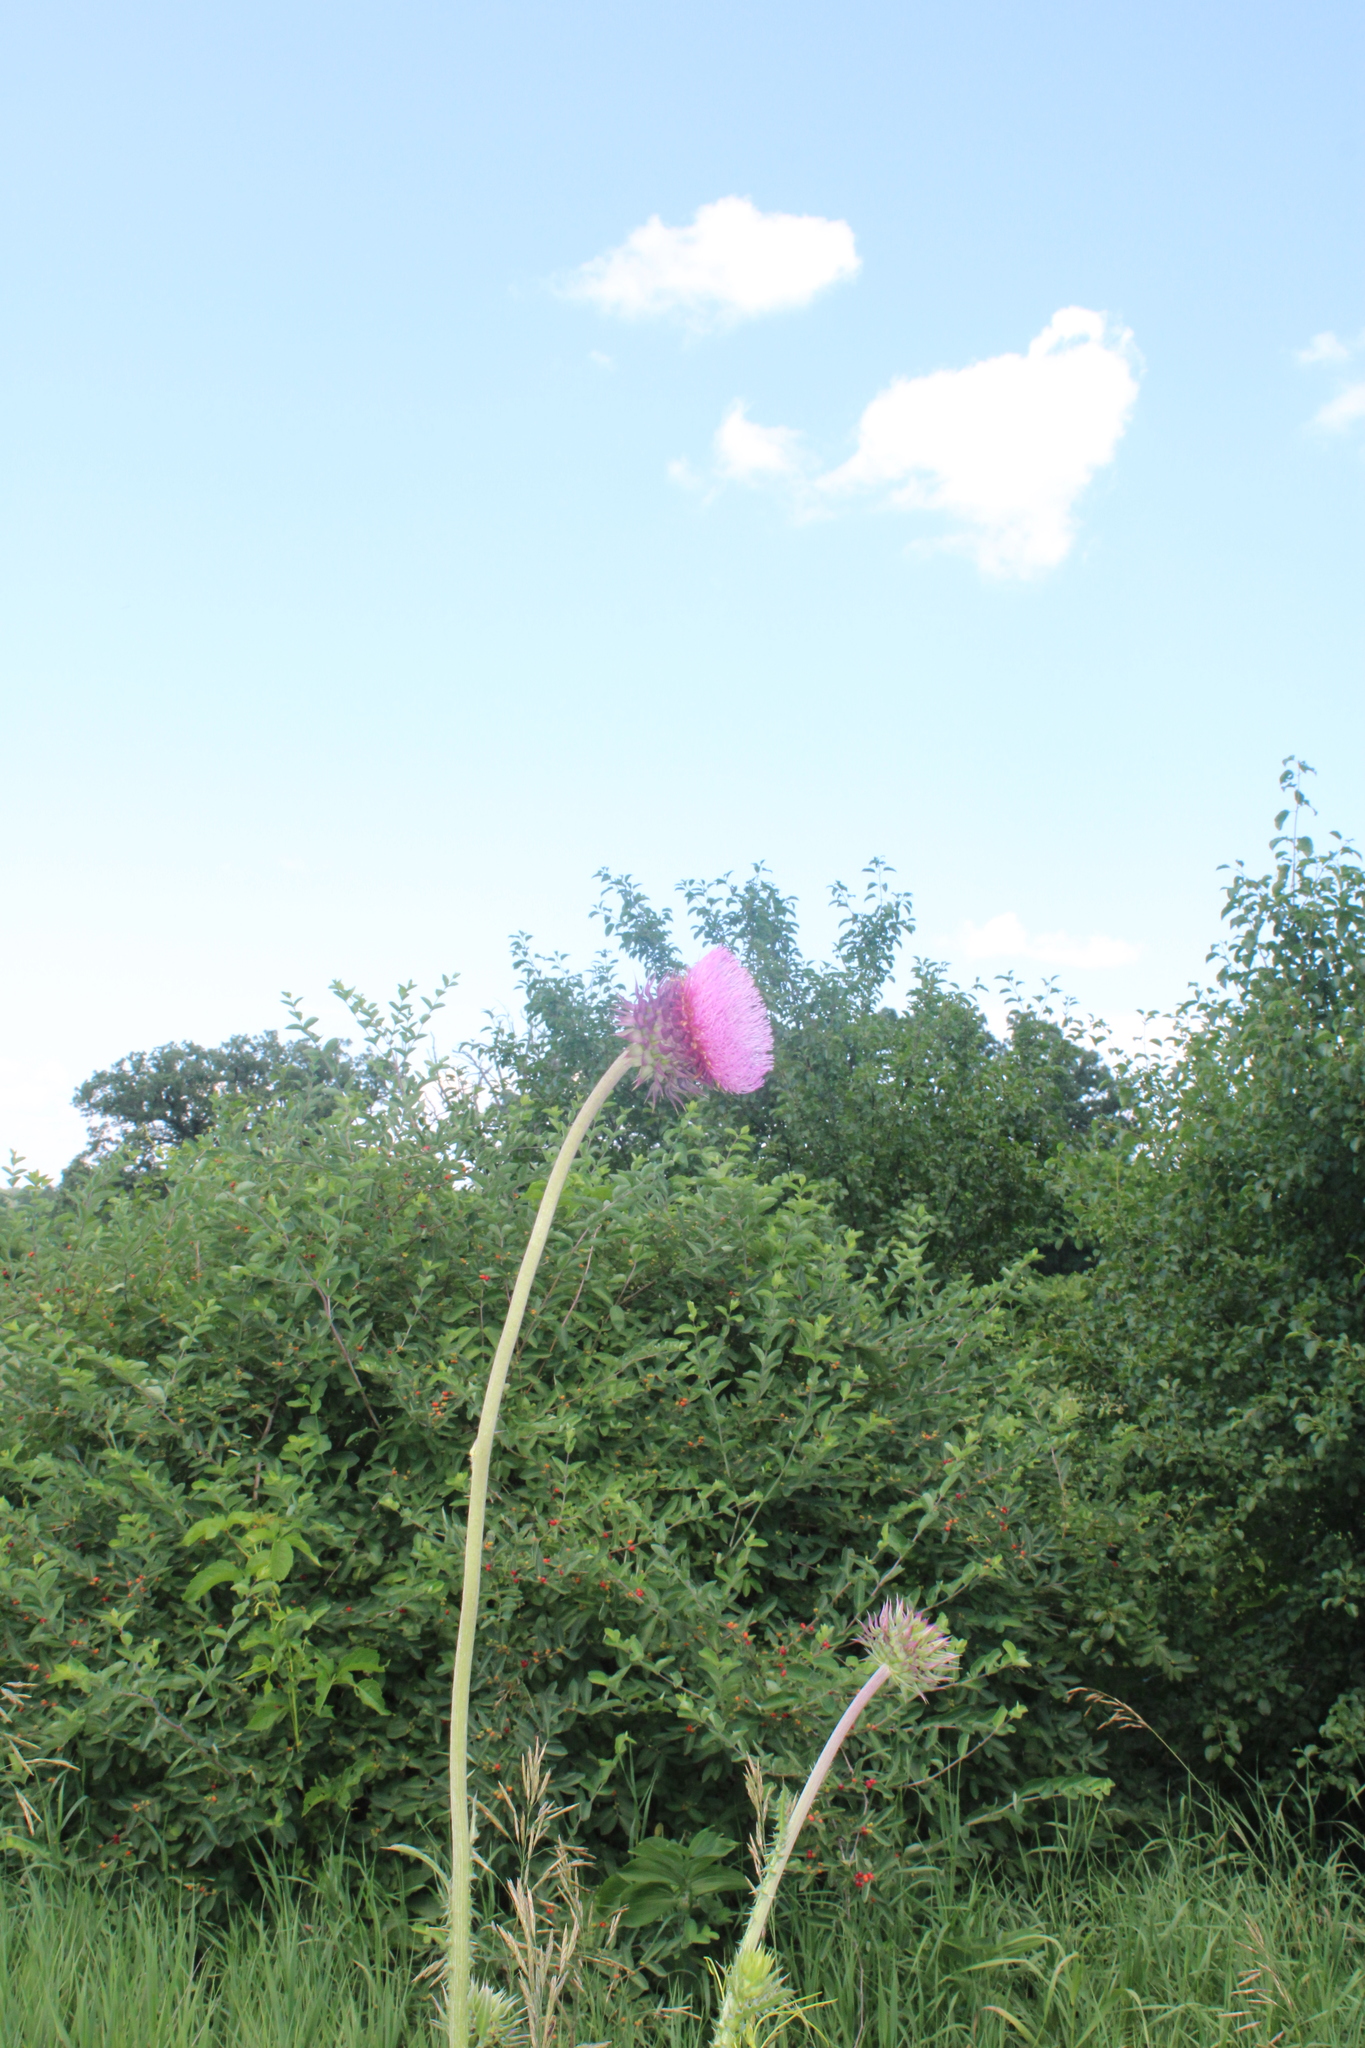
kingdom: Plantae
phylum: Tracheophyta
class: Magnoliopsida
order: Asterales
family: Asteraceae
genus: Carduus
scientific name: Carduus nutans
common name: Musk thistle
